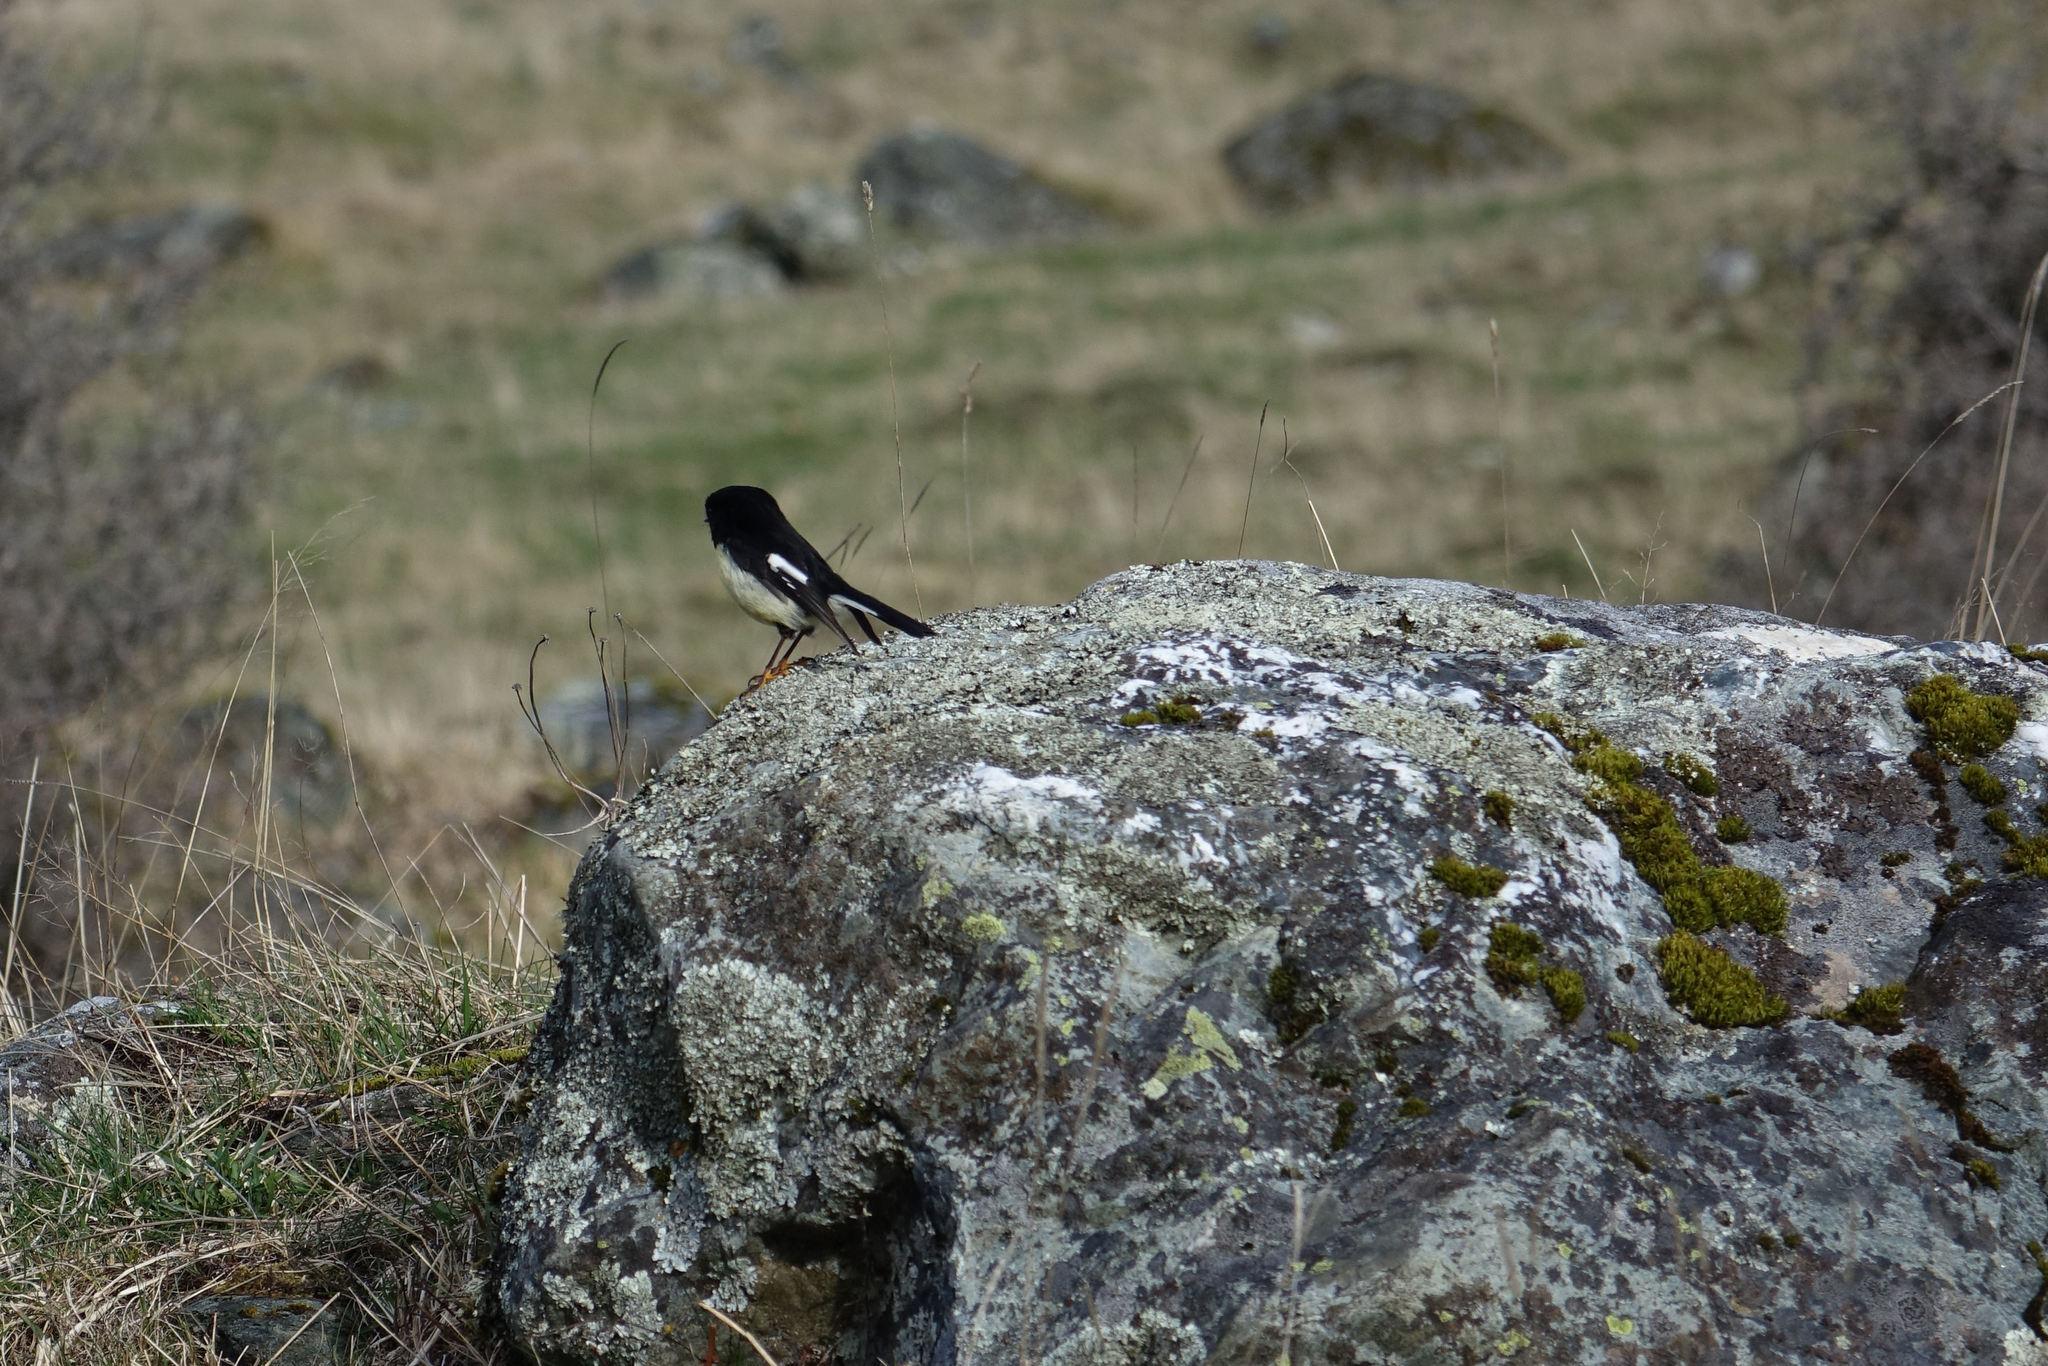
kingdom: Animalia
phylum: Chordata
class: Aves
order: Passeriformes
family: Petroicidae
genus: Petroica
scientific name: Petroica macrocephala
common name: Tomtit
